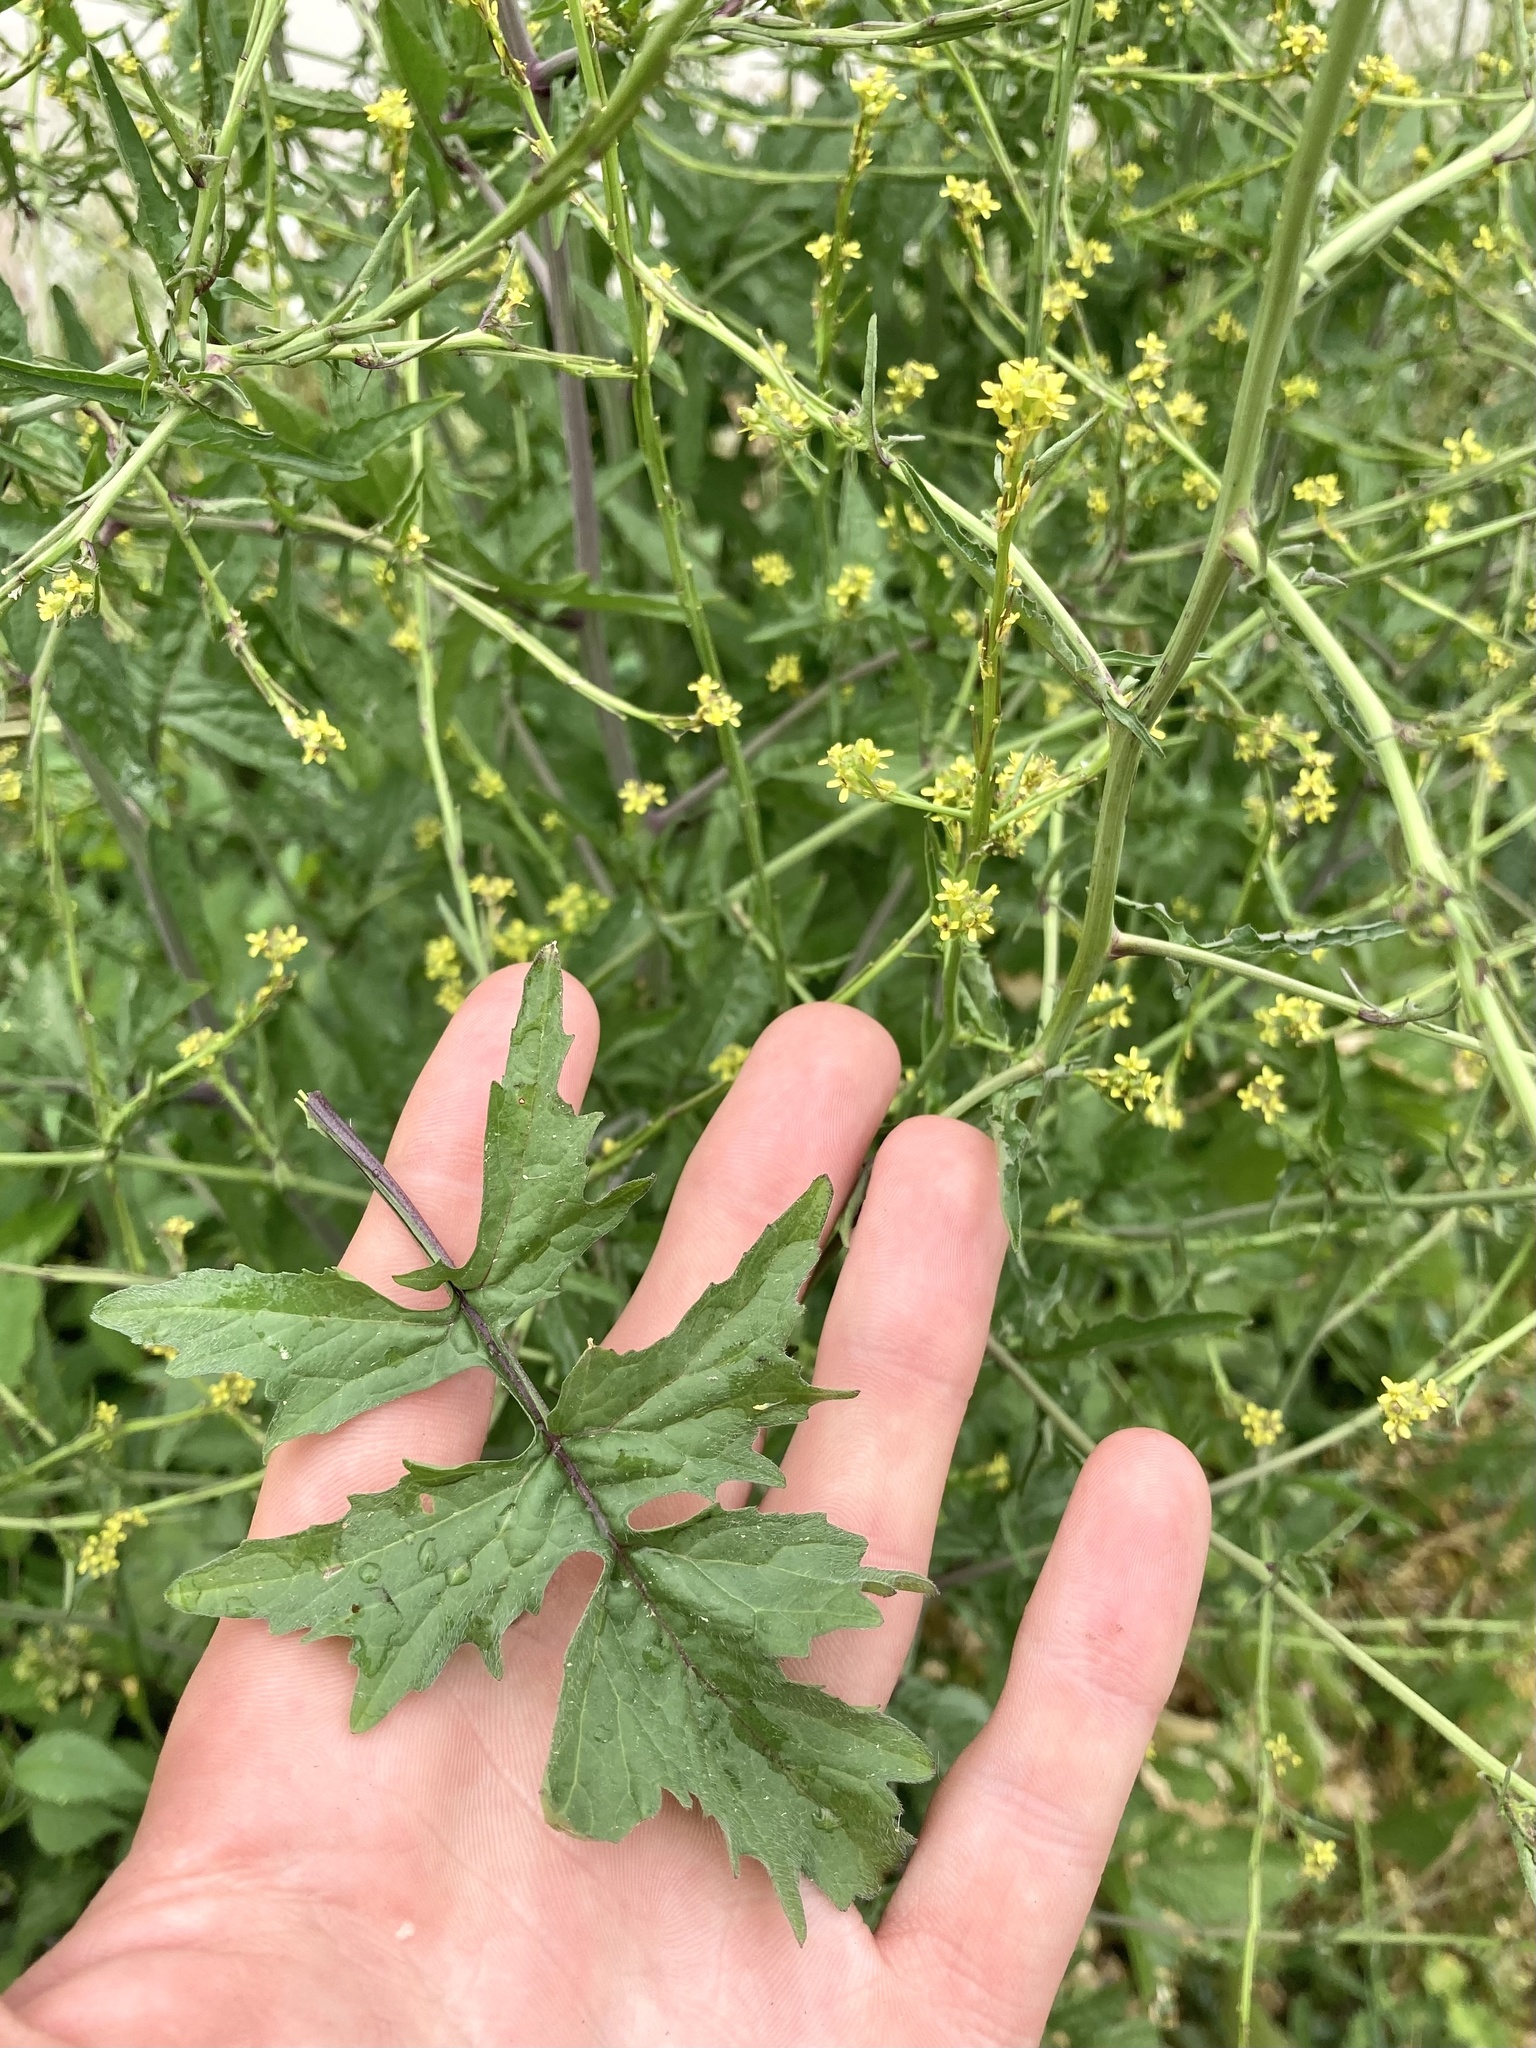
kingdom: Plantae
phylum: Tracheophyta
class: Magnoliopsida
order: Brassicales
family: Brassicaceae
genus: Sisymbrium
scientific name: Sisymbrium officinale
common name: Hedge mustard
